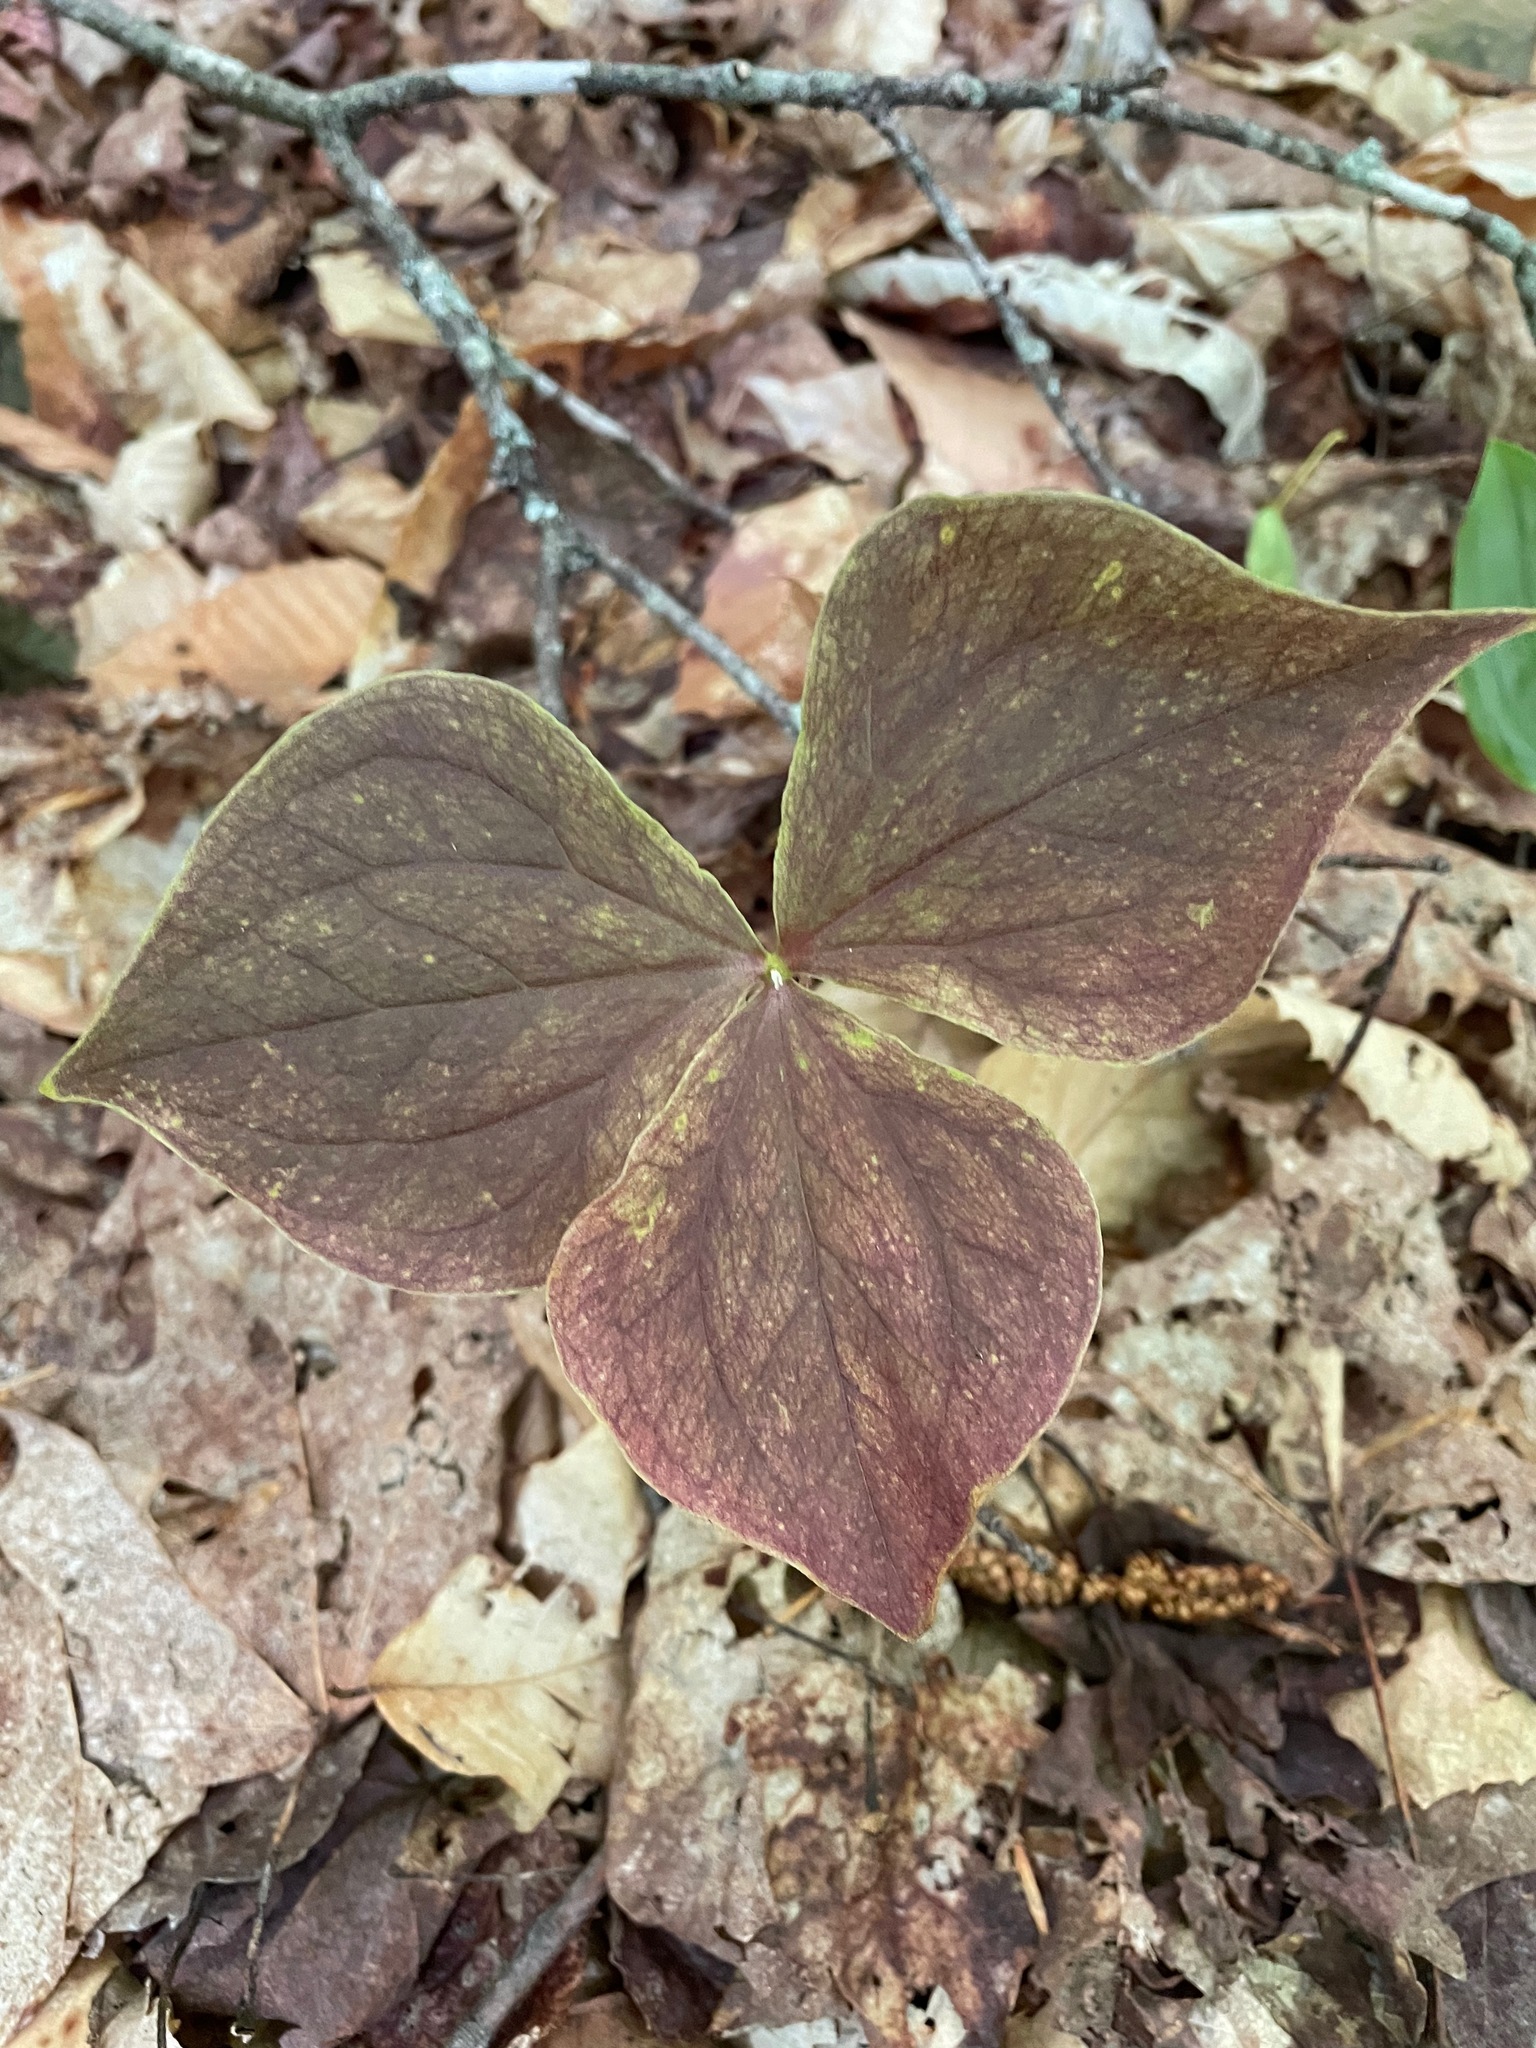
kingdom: Plantae
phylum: Tracheophyta
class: Liliopsida
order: Liliales
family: Melanthiaceae
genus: Trillium
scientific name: Trillium erectum
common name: Purple trillium
